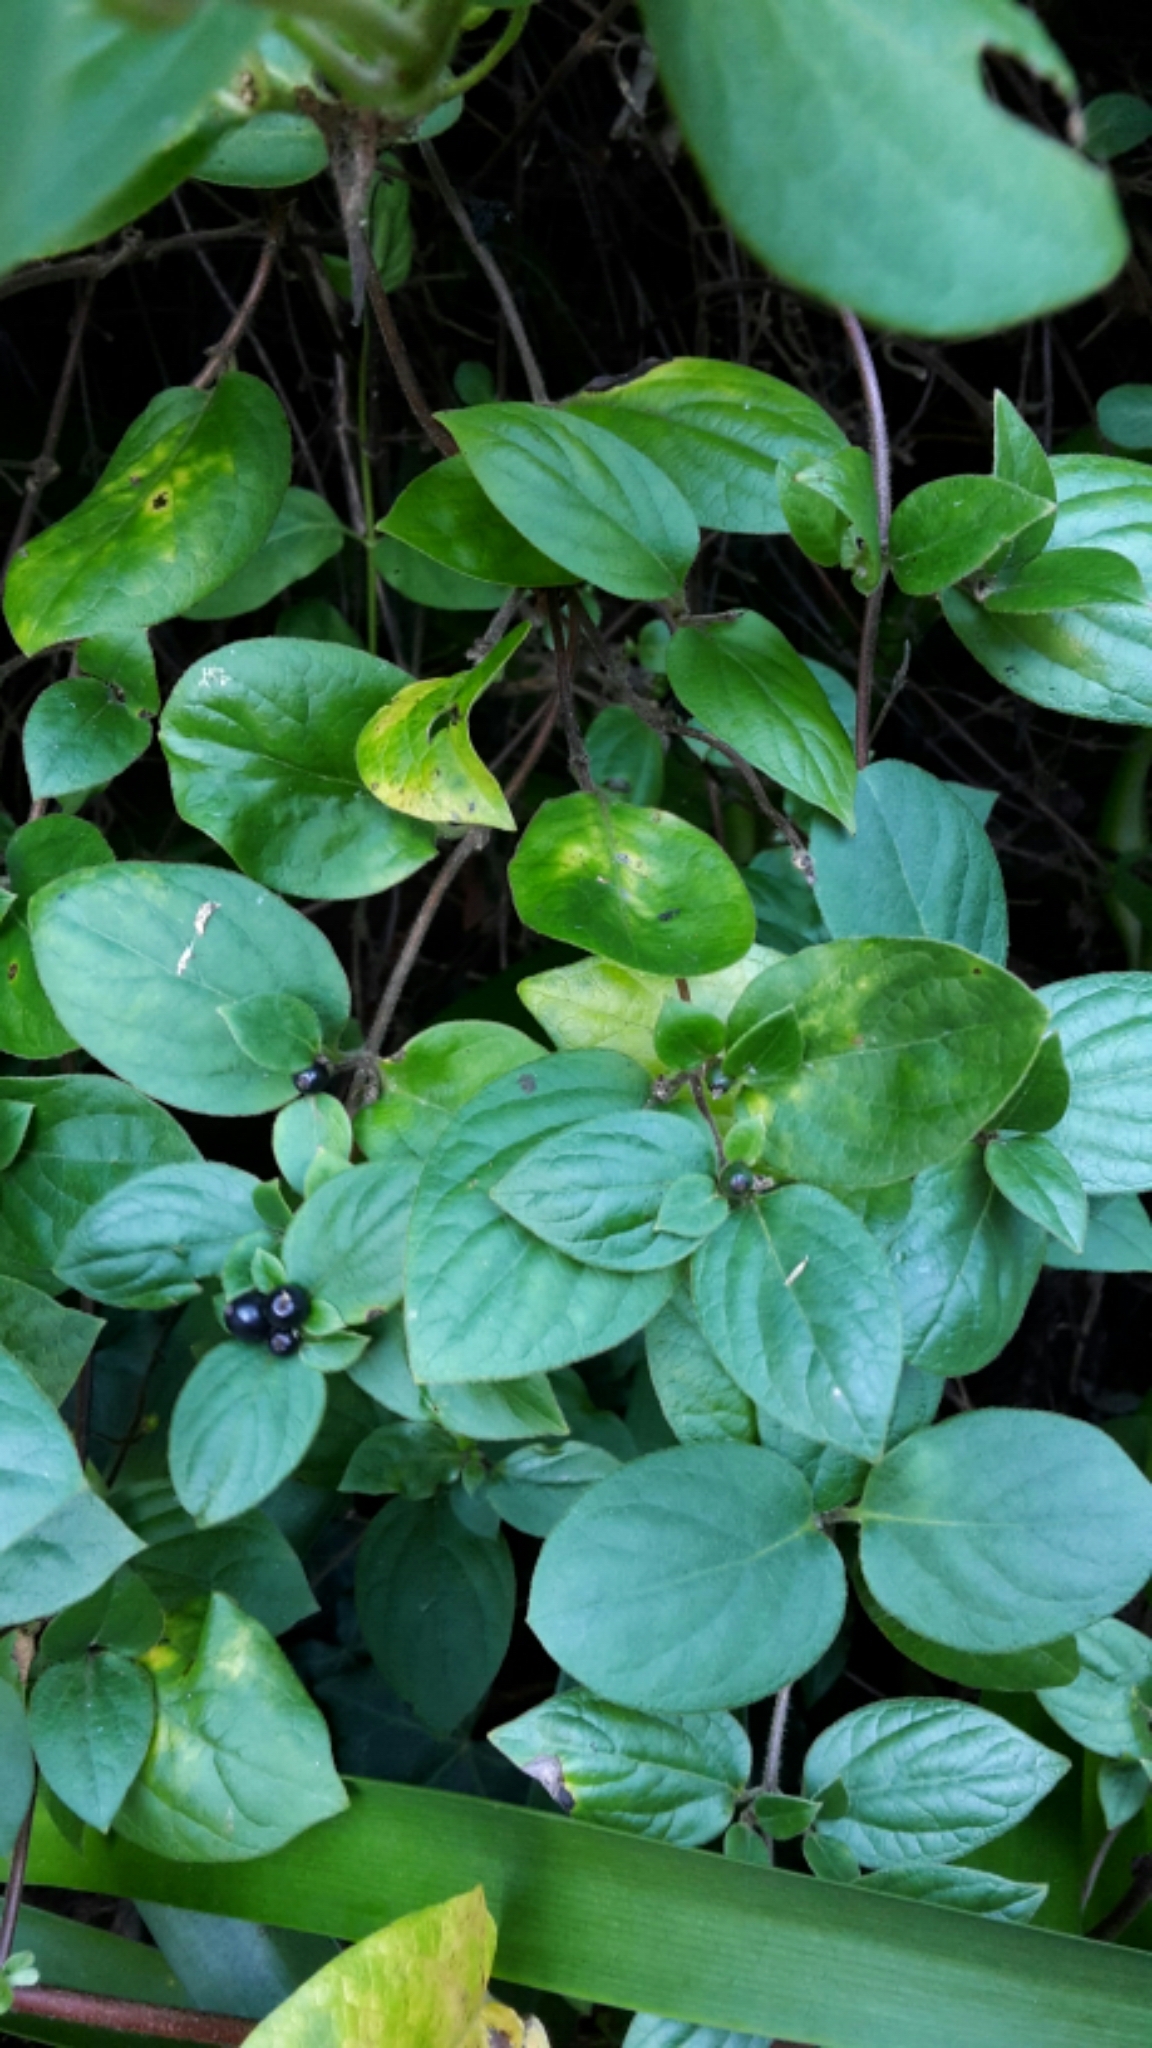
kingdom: Plantae
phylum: Tracheophyta
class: Magnoliopsida
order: Dipsacales
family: Caprifoliaceae
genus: Lonicera
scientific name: Lonicera japonica
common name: Japanese honeysuckle
